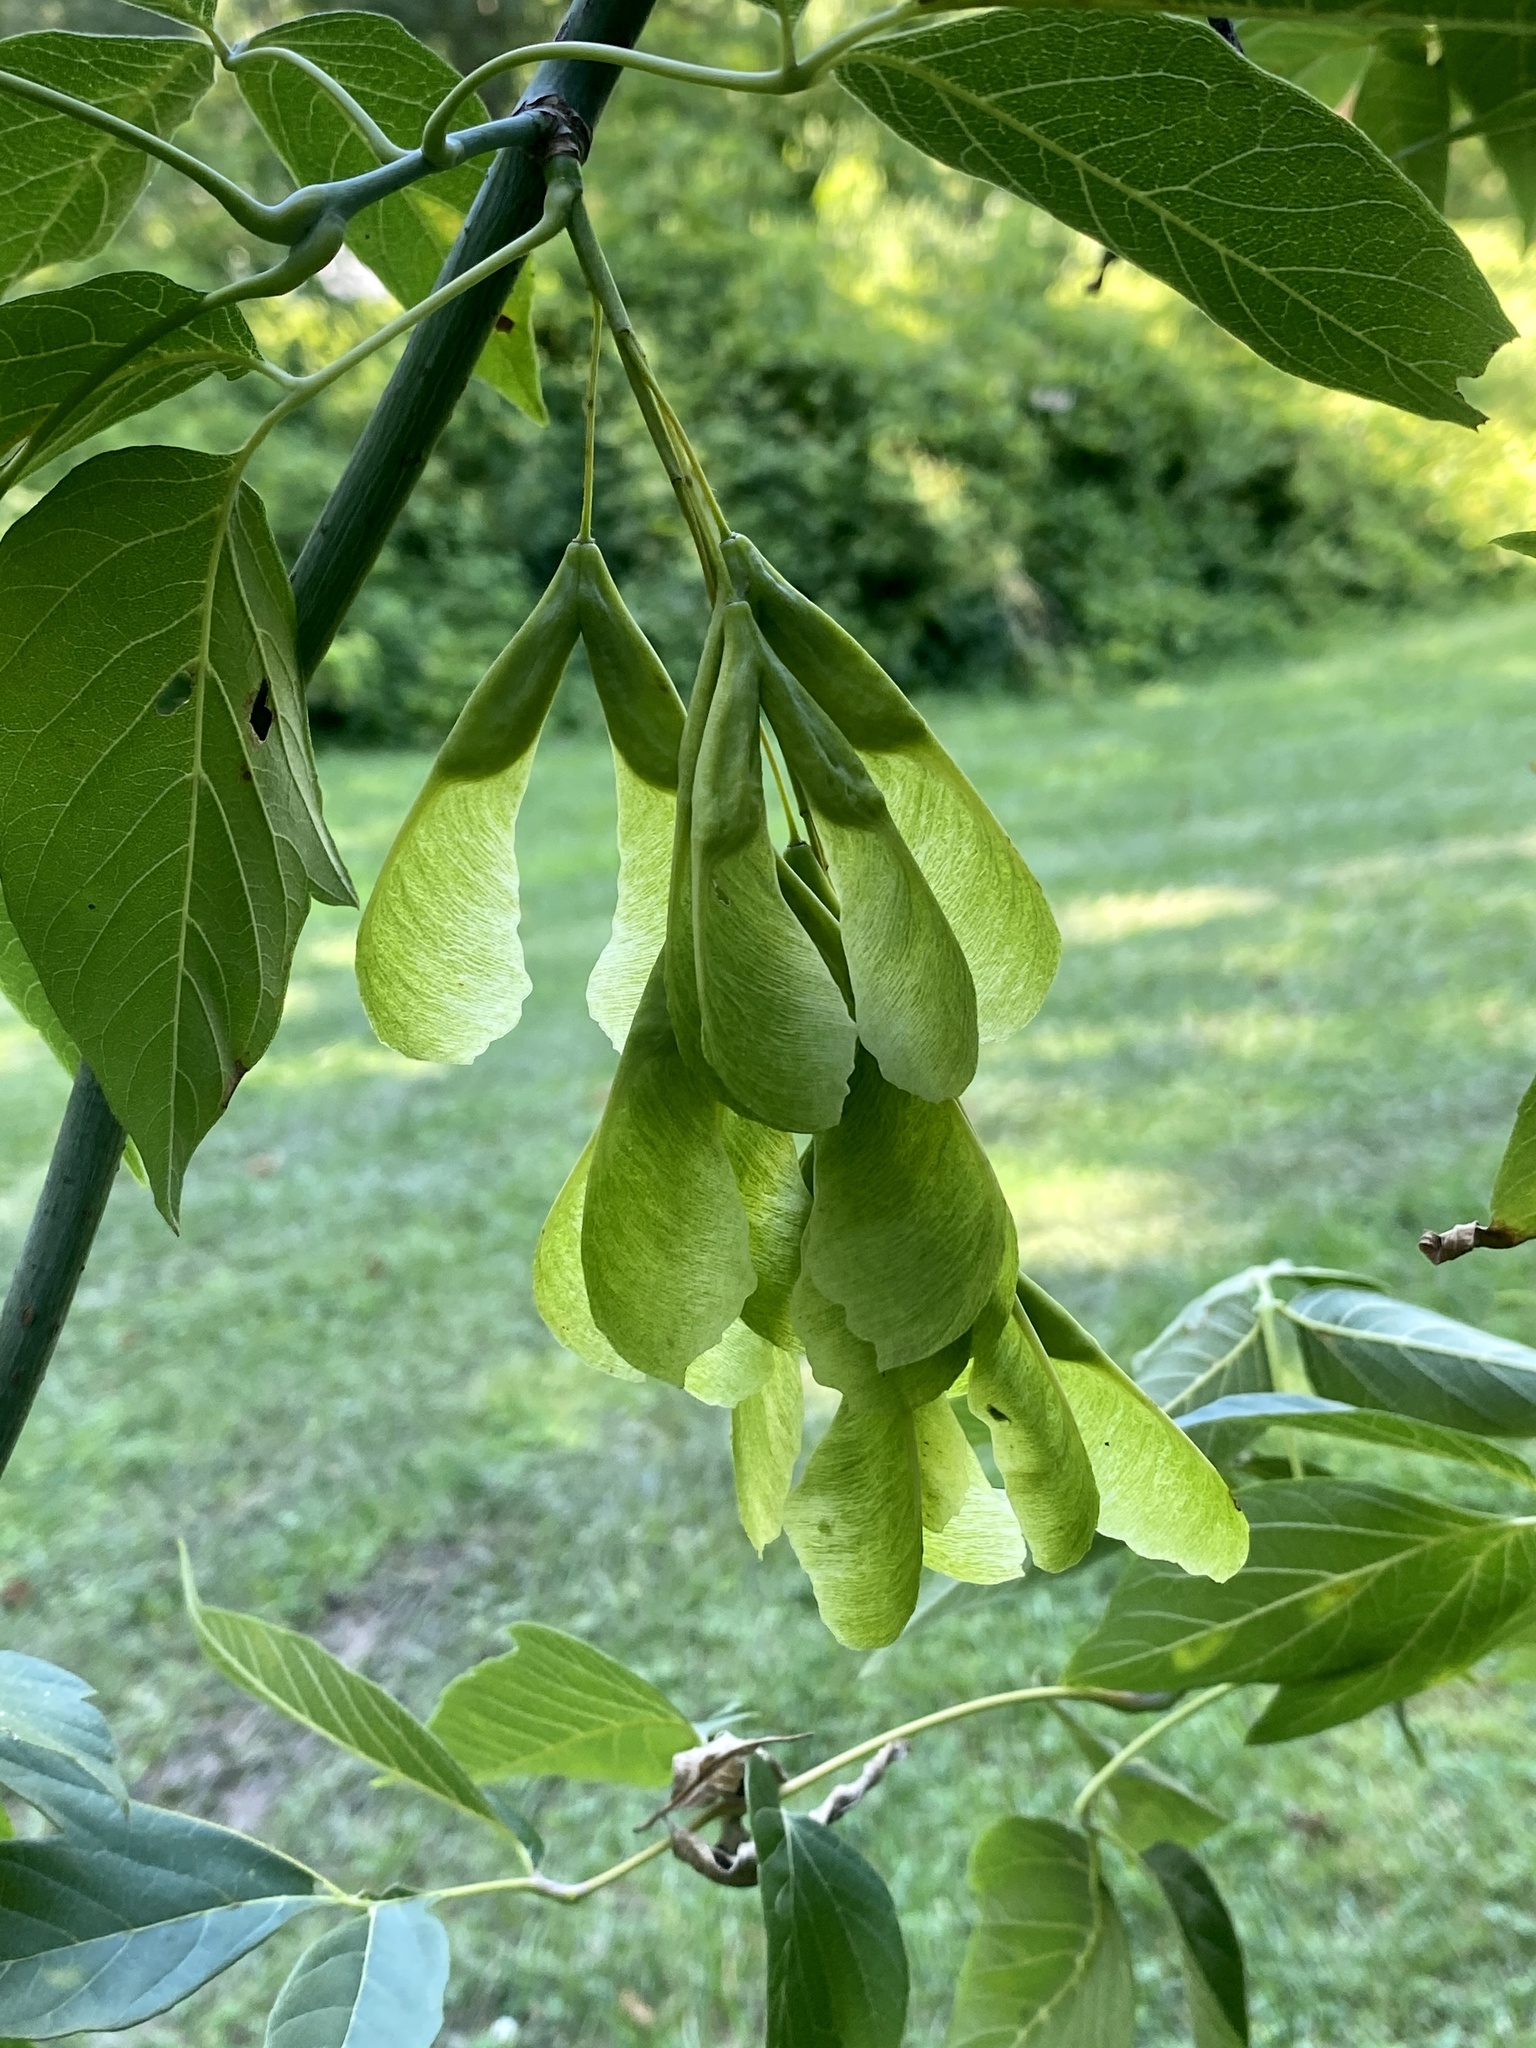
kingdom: Plantae
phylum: Tracheophyta
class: Magnoliopsida
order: Sapindales
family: Sapindaceae
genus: Acer
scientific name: Acer negundo
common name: Ashleaf maple
